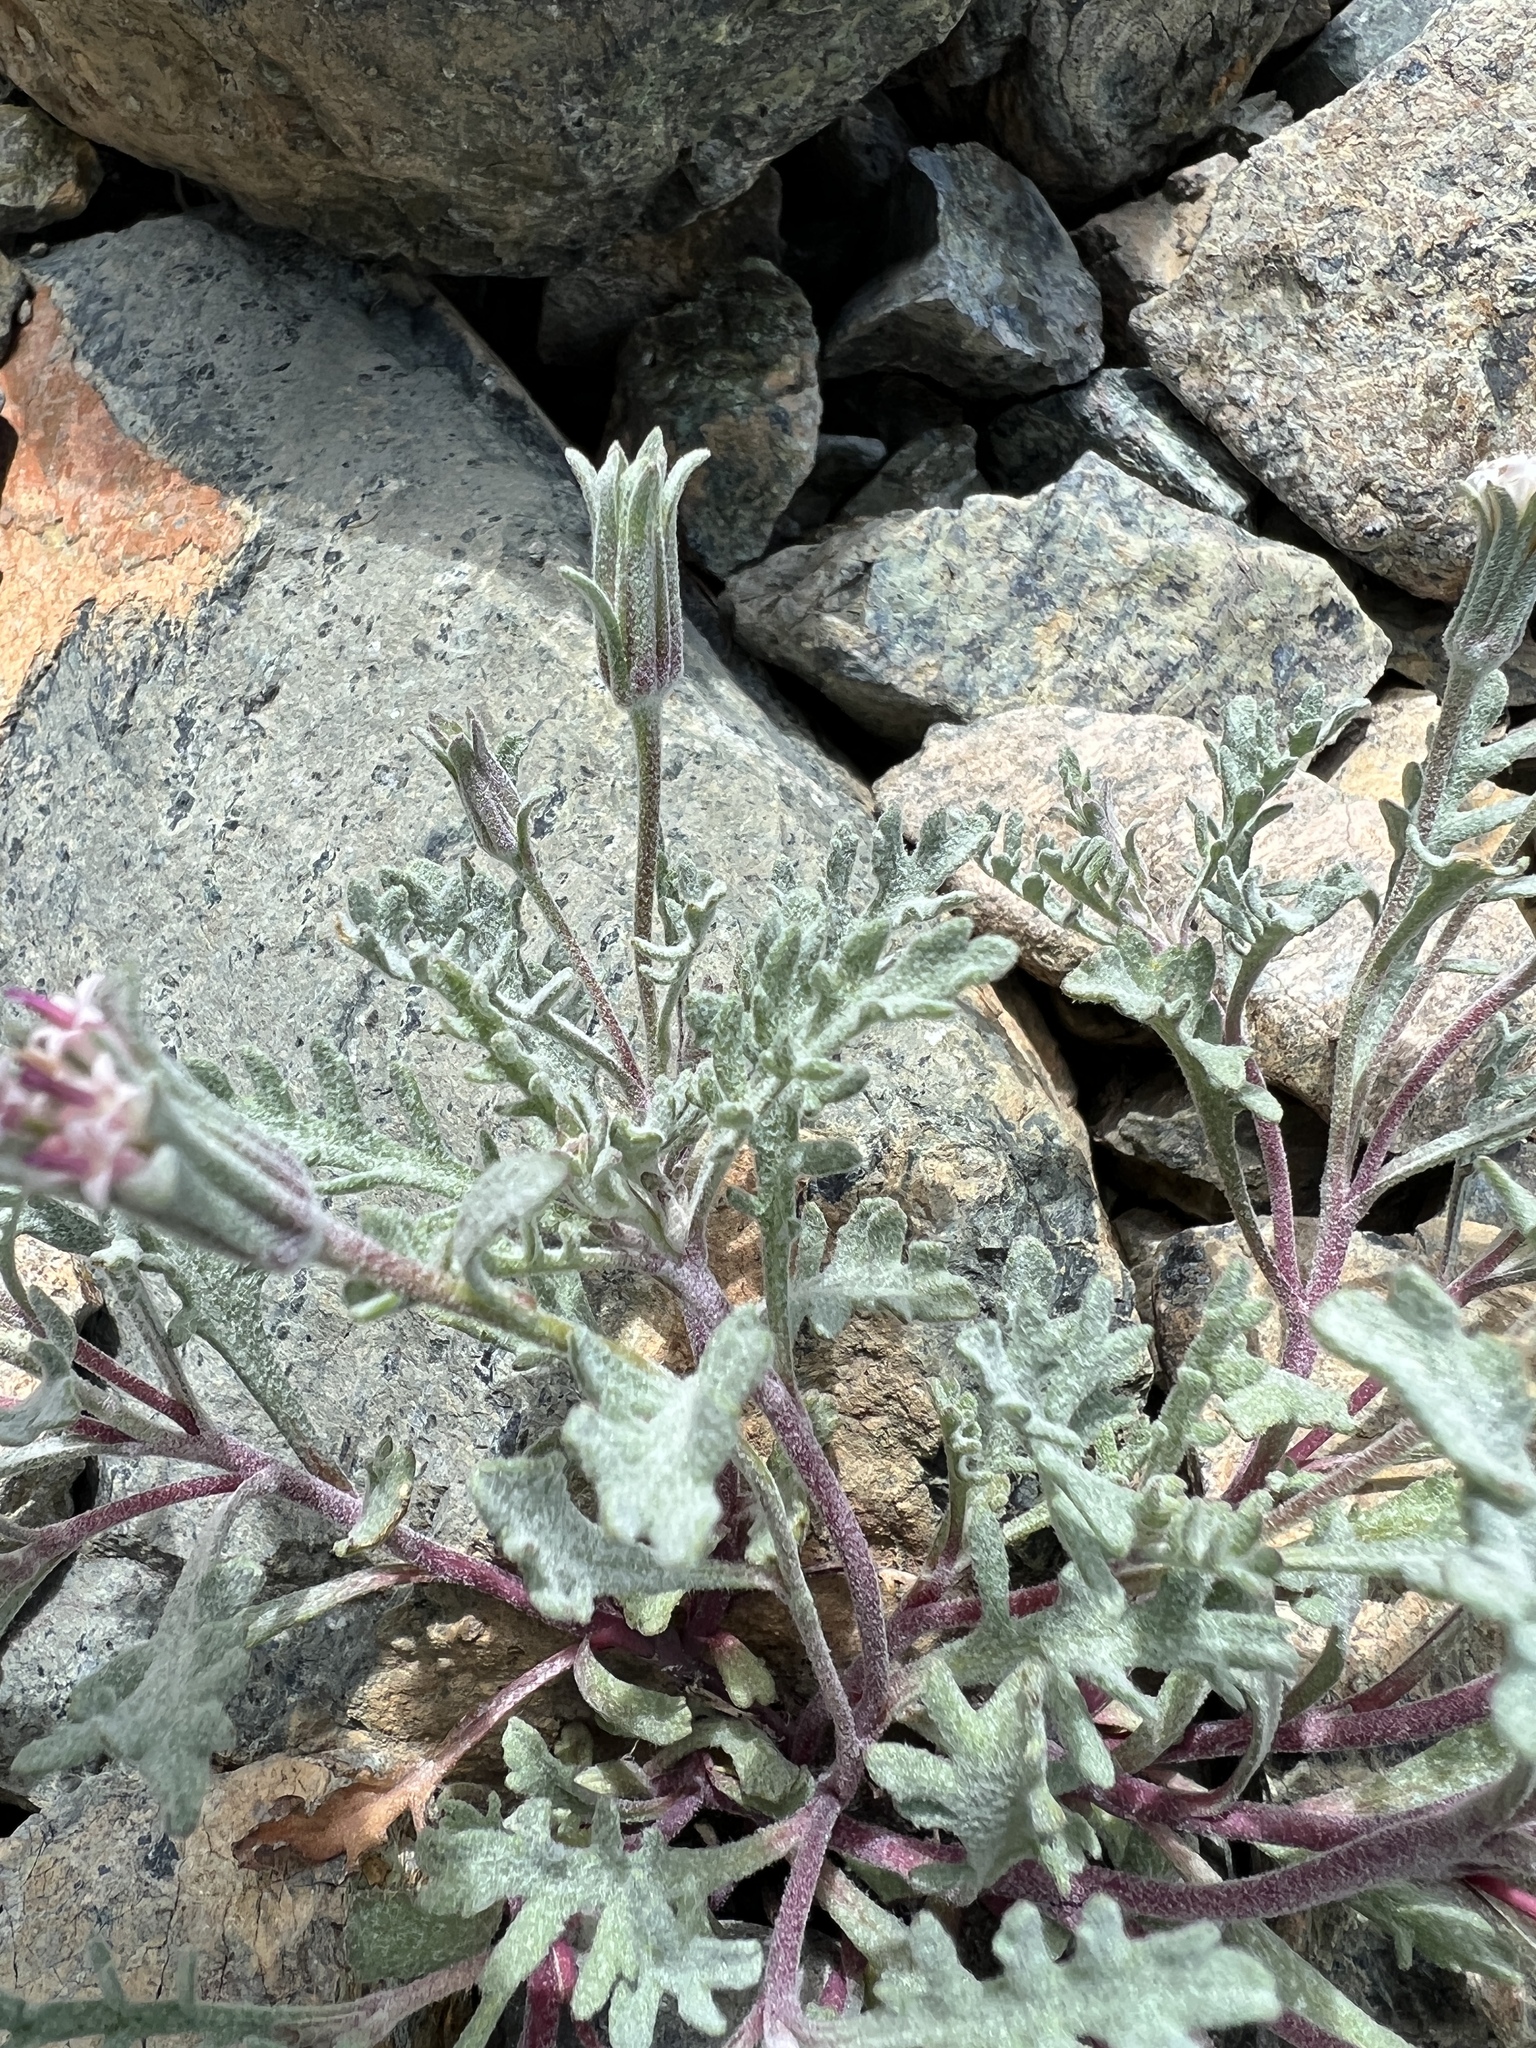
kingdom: Plantae
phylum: Tracheophyta
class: Magnoliopsida
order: Asterales
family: Asteraceae
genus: Chaenactis
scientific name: Chaenactis thompsonii
